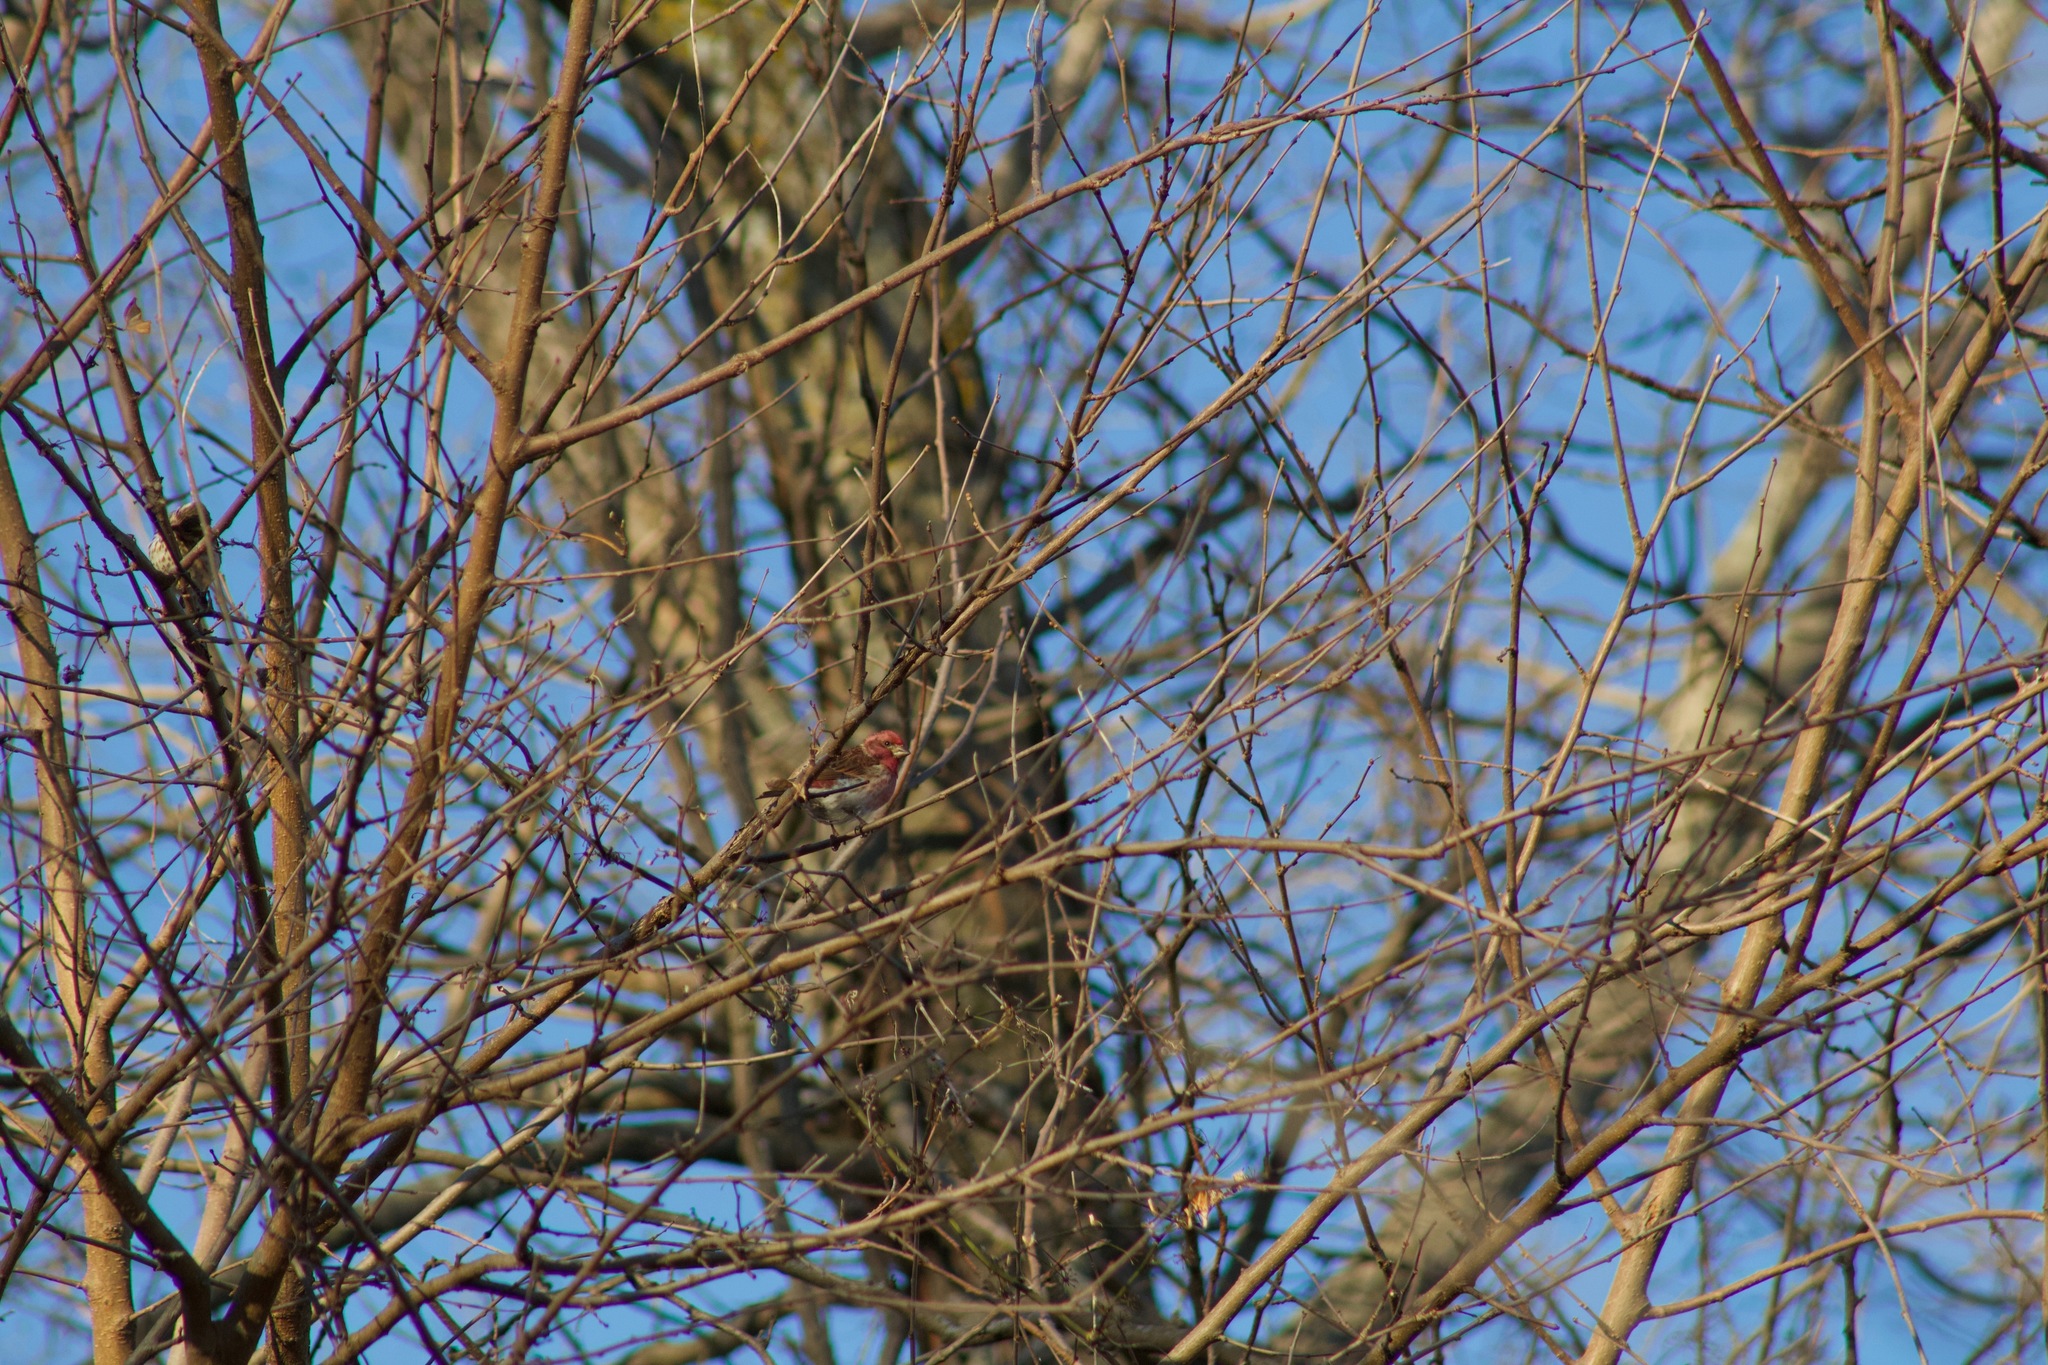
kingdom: Animalia
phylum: Chordata
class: Aves
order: Passeriformes
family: Fringillidae
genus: Haemorhous
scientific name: Haemorhous purpureus
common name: Purple finch
